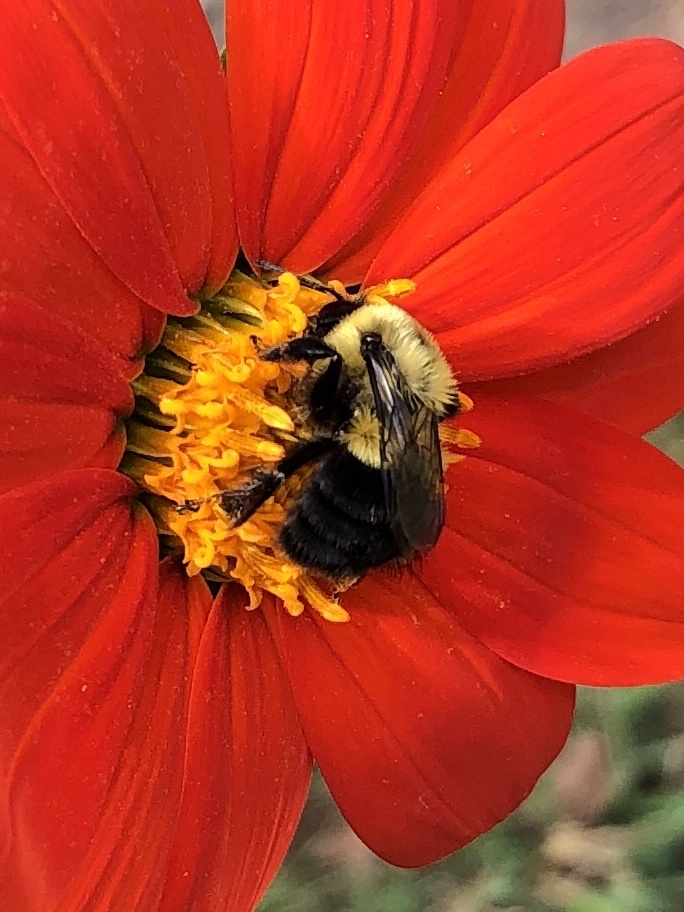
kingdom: Animalia
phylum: Arthropoda
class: Insecta
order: Hymenoptera
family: Apidae
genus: Bombus
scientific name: Bombus impatiens
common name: Common eastern bumble bee
